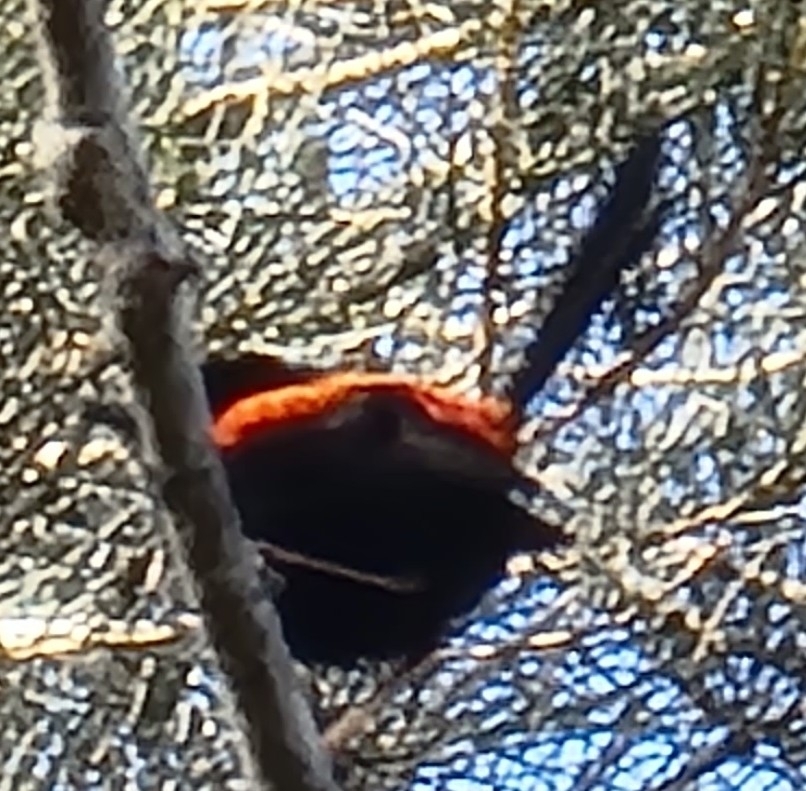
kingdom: Animalia
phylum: Chordata
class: Aves
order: Passeriformes
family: Maluridae
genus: Malurus
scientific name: Malurus melanocephalus
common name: Red-backed fairywren
